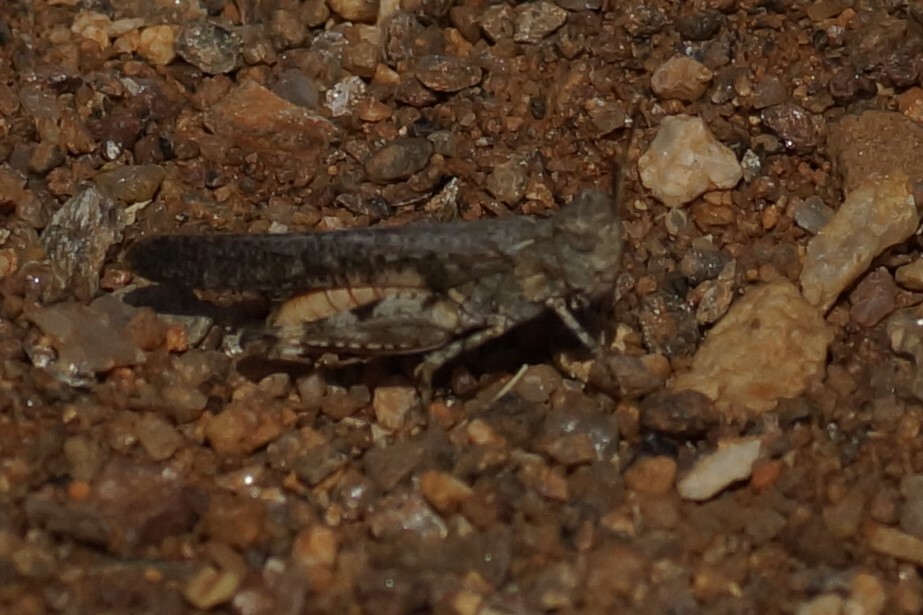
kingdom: Animalia
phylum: Arthropoda
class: Insecta
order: Orthoptera
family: Acrididae
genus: Pycnostictus
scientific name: Pycnostictus seriatus
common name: Common bandwing
